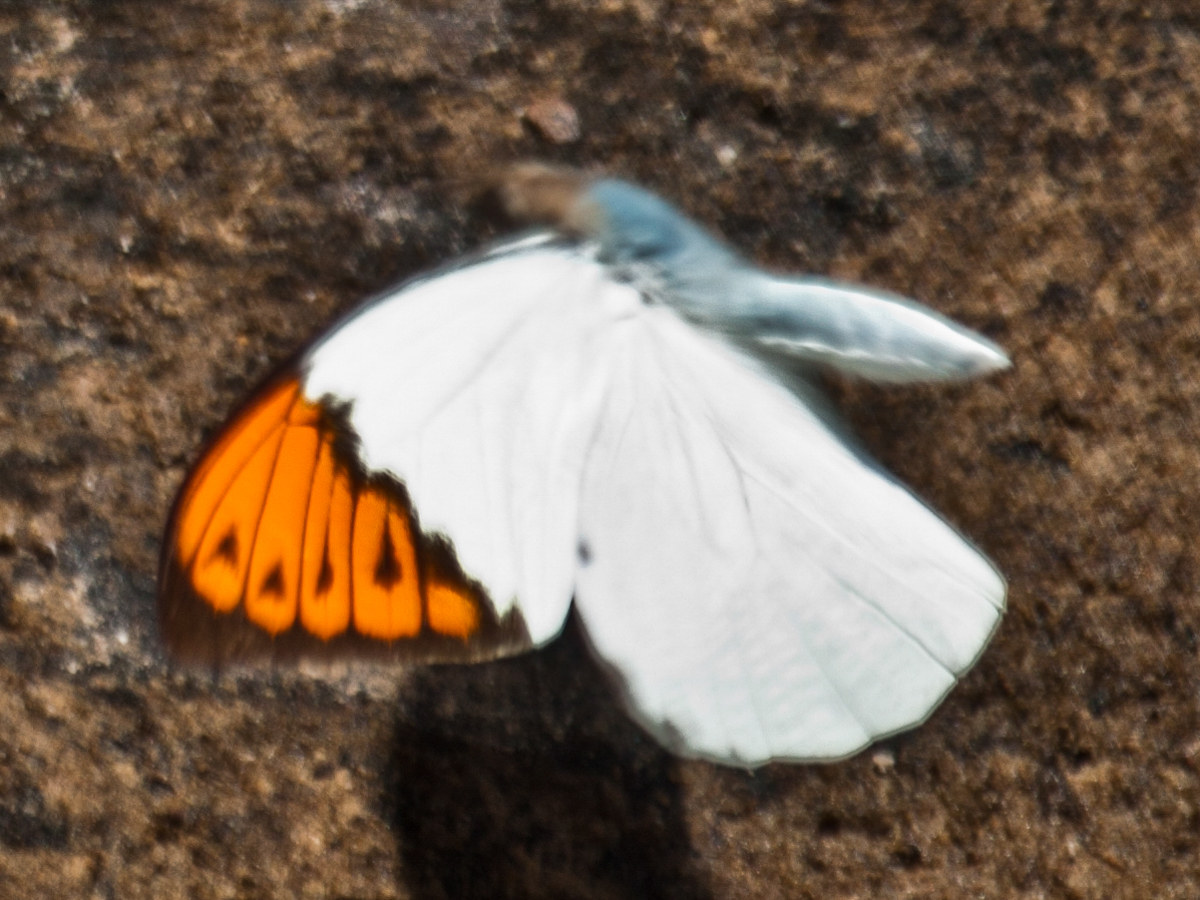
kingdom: Animalia
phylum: Arthropoda
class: Insecta
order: Lepidoptera
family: Pieridae
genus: Hebomoia
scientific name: Hebomoia glaucippe
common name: Great orange tip
